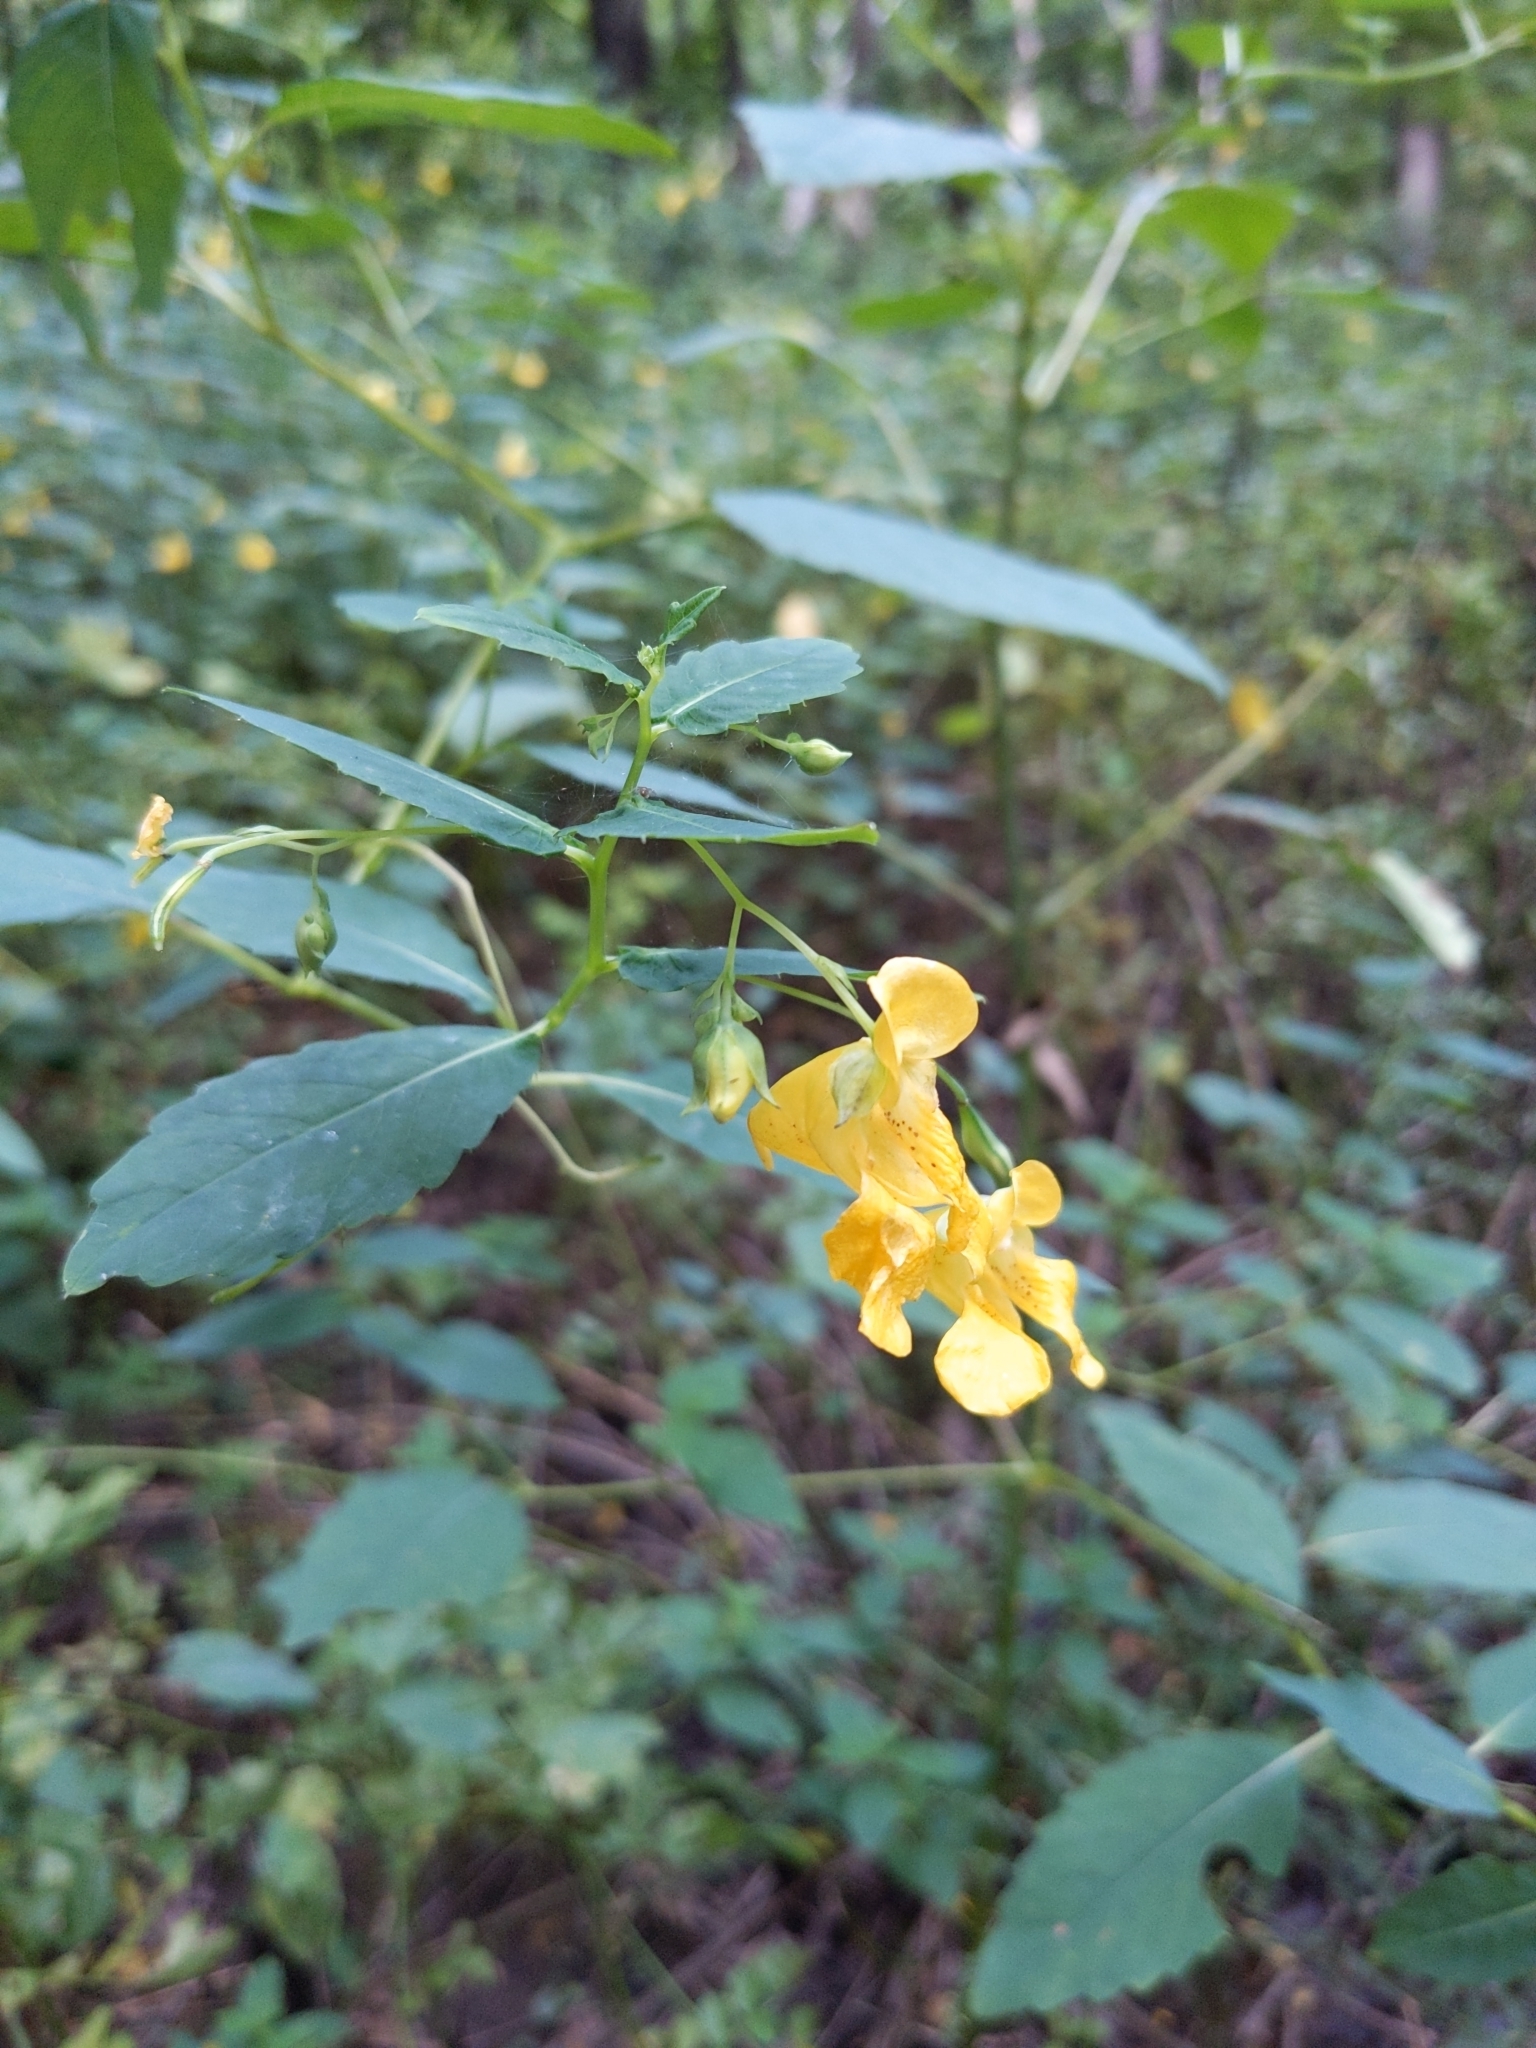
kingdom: Plantae
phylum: Tracheophyta
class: Magnoliopsida
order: Ericales
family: Balsaminaceae
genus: Impatiens
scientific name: Impatiens pallida
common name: Pale snapweed
